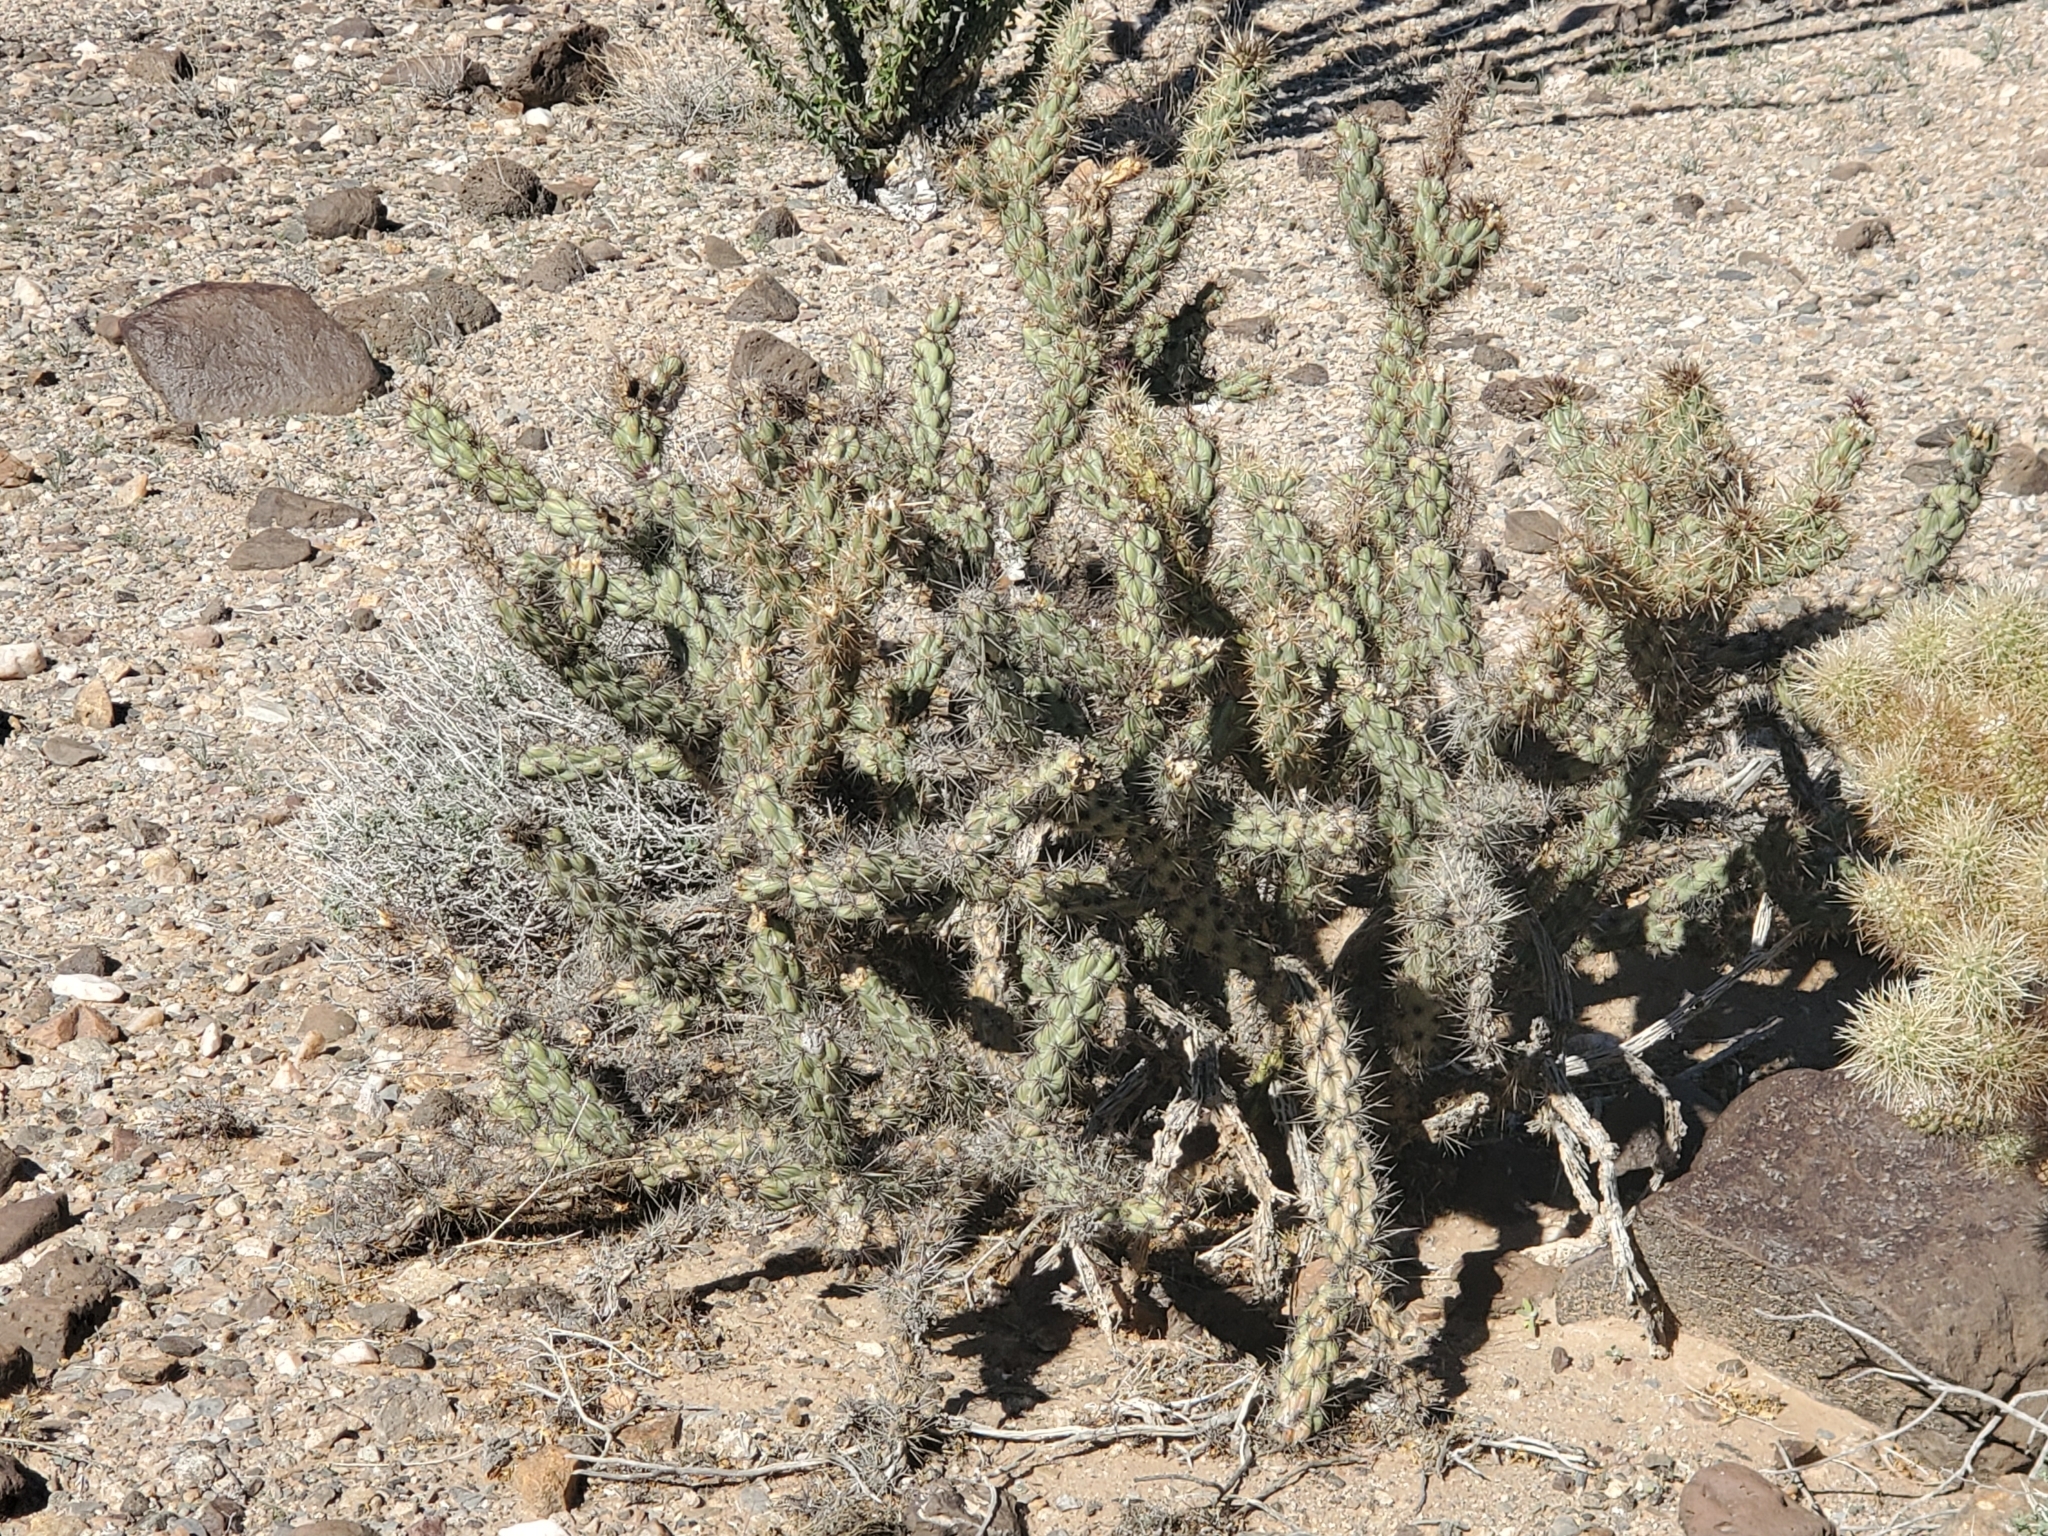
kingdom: Plantae
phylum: Tracheophyta
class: Magnoliopsida
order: Caryophyllales
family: Cactaceae
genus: Cylindropuntia
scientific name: Cylindropuntia acanthocarpa
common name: Buckhorn cholla
